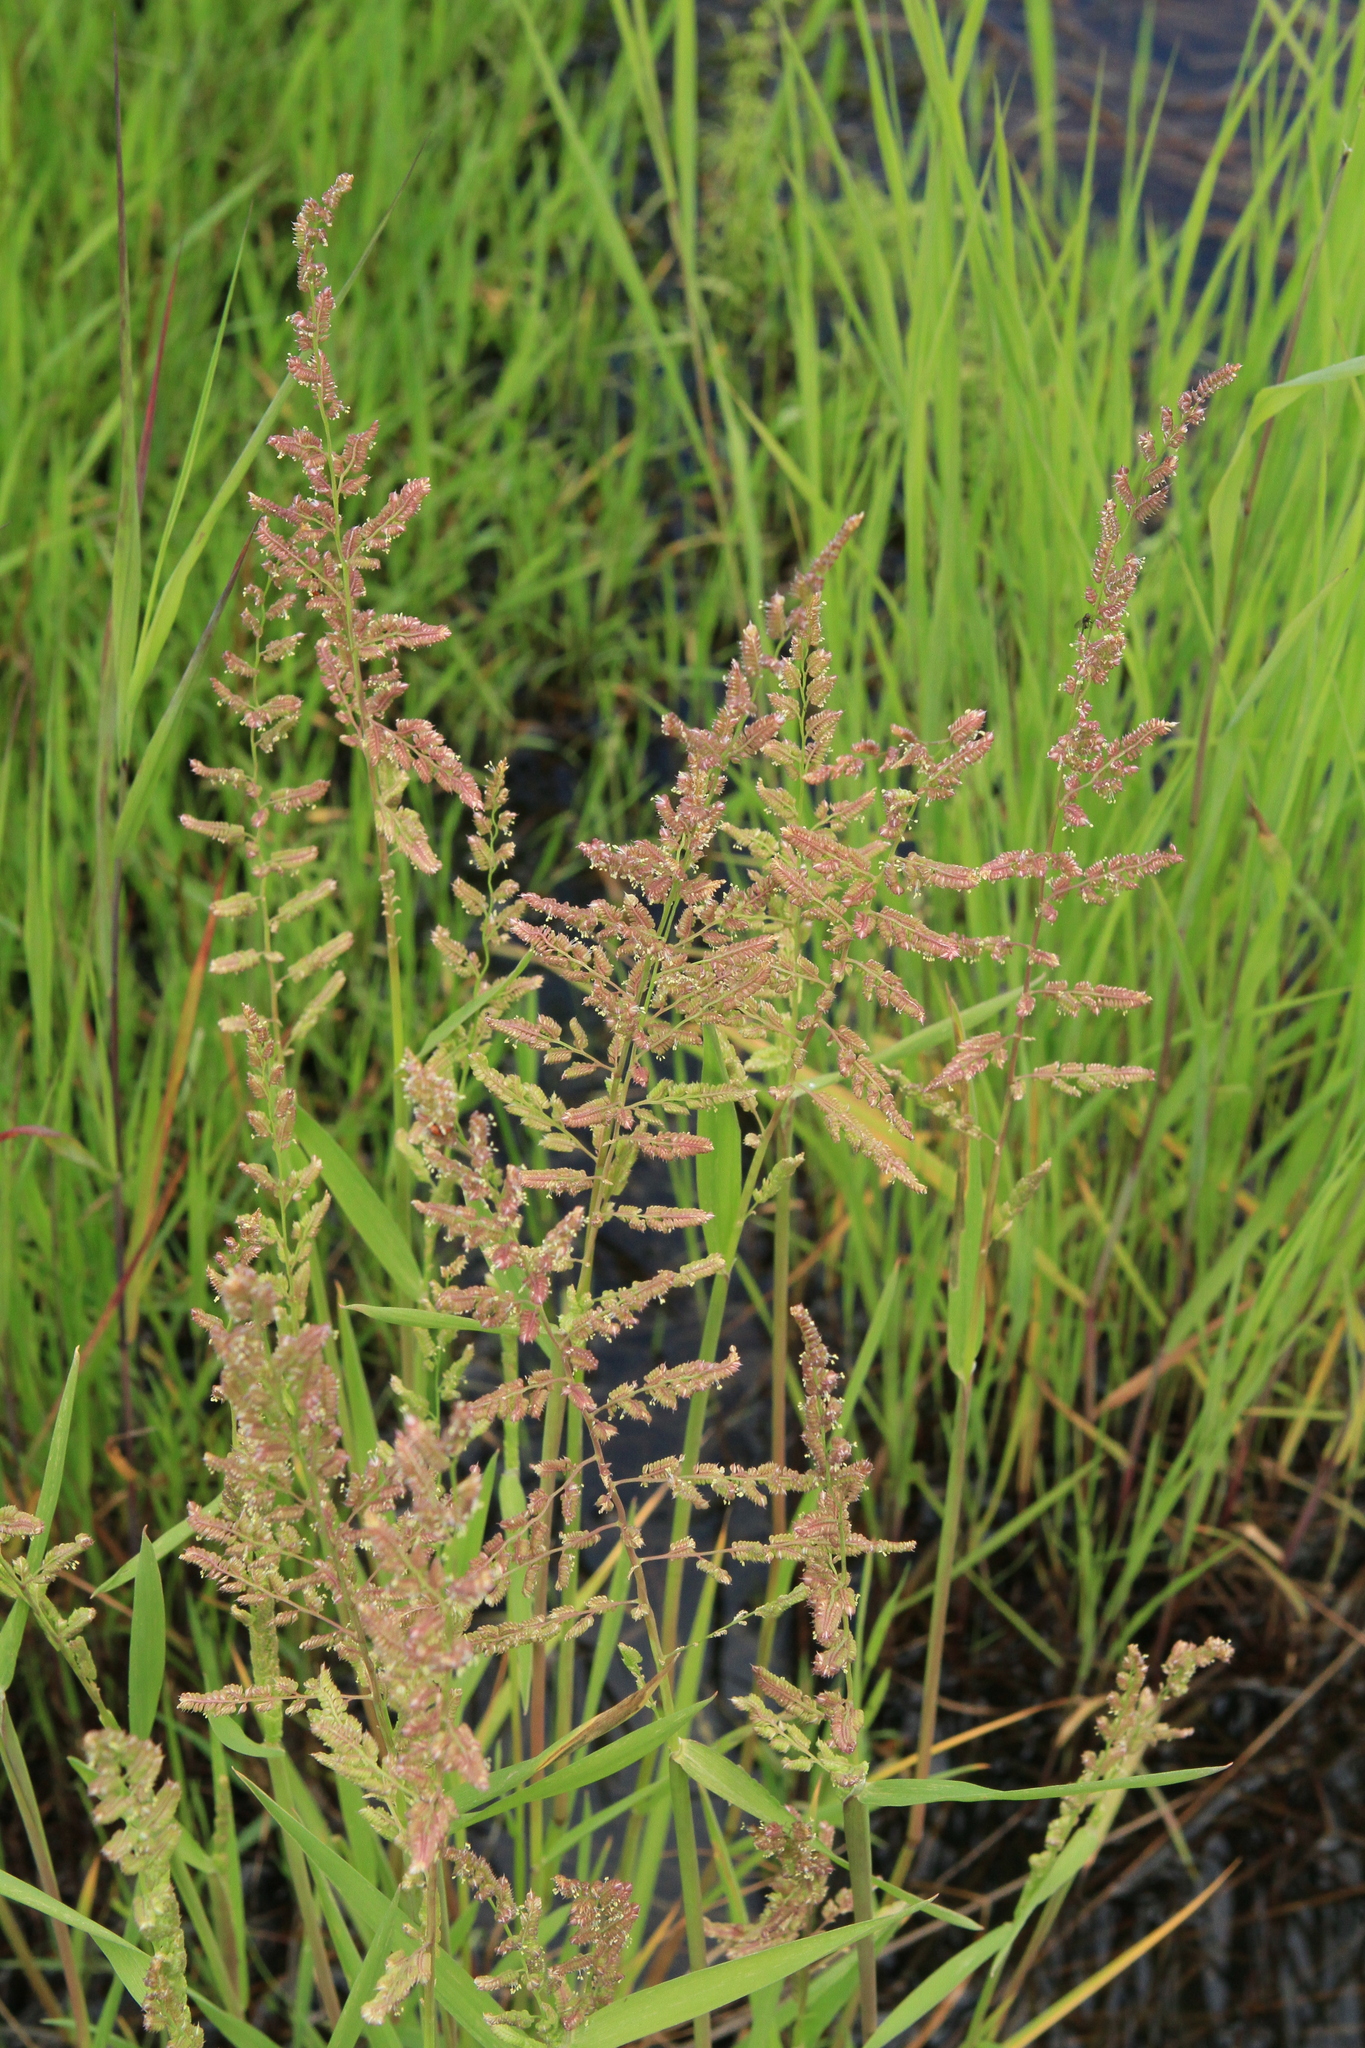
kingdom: Plantae
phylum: Tracheophyta
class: Liliopsida
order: Poales
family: Poaceae
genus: Beckmannia
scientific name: Beckmannia syzigachne
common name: American slough-grass
